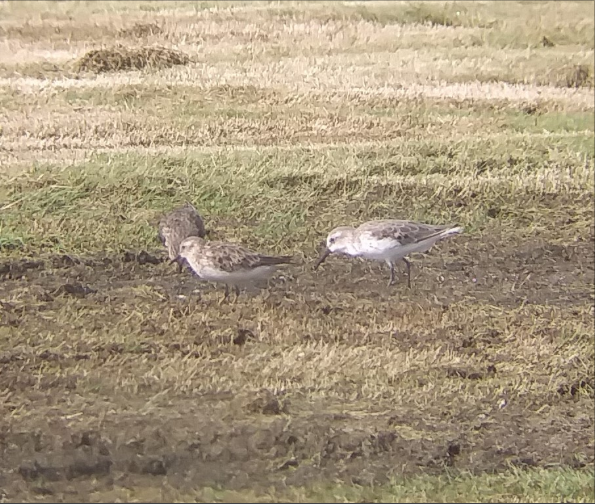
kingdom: Animalia
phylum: Chordata
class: Aves
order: Charadriiformes
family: Scolopacidae
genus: Calidris
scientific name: Calidris mauri
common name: Western sandpiper
